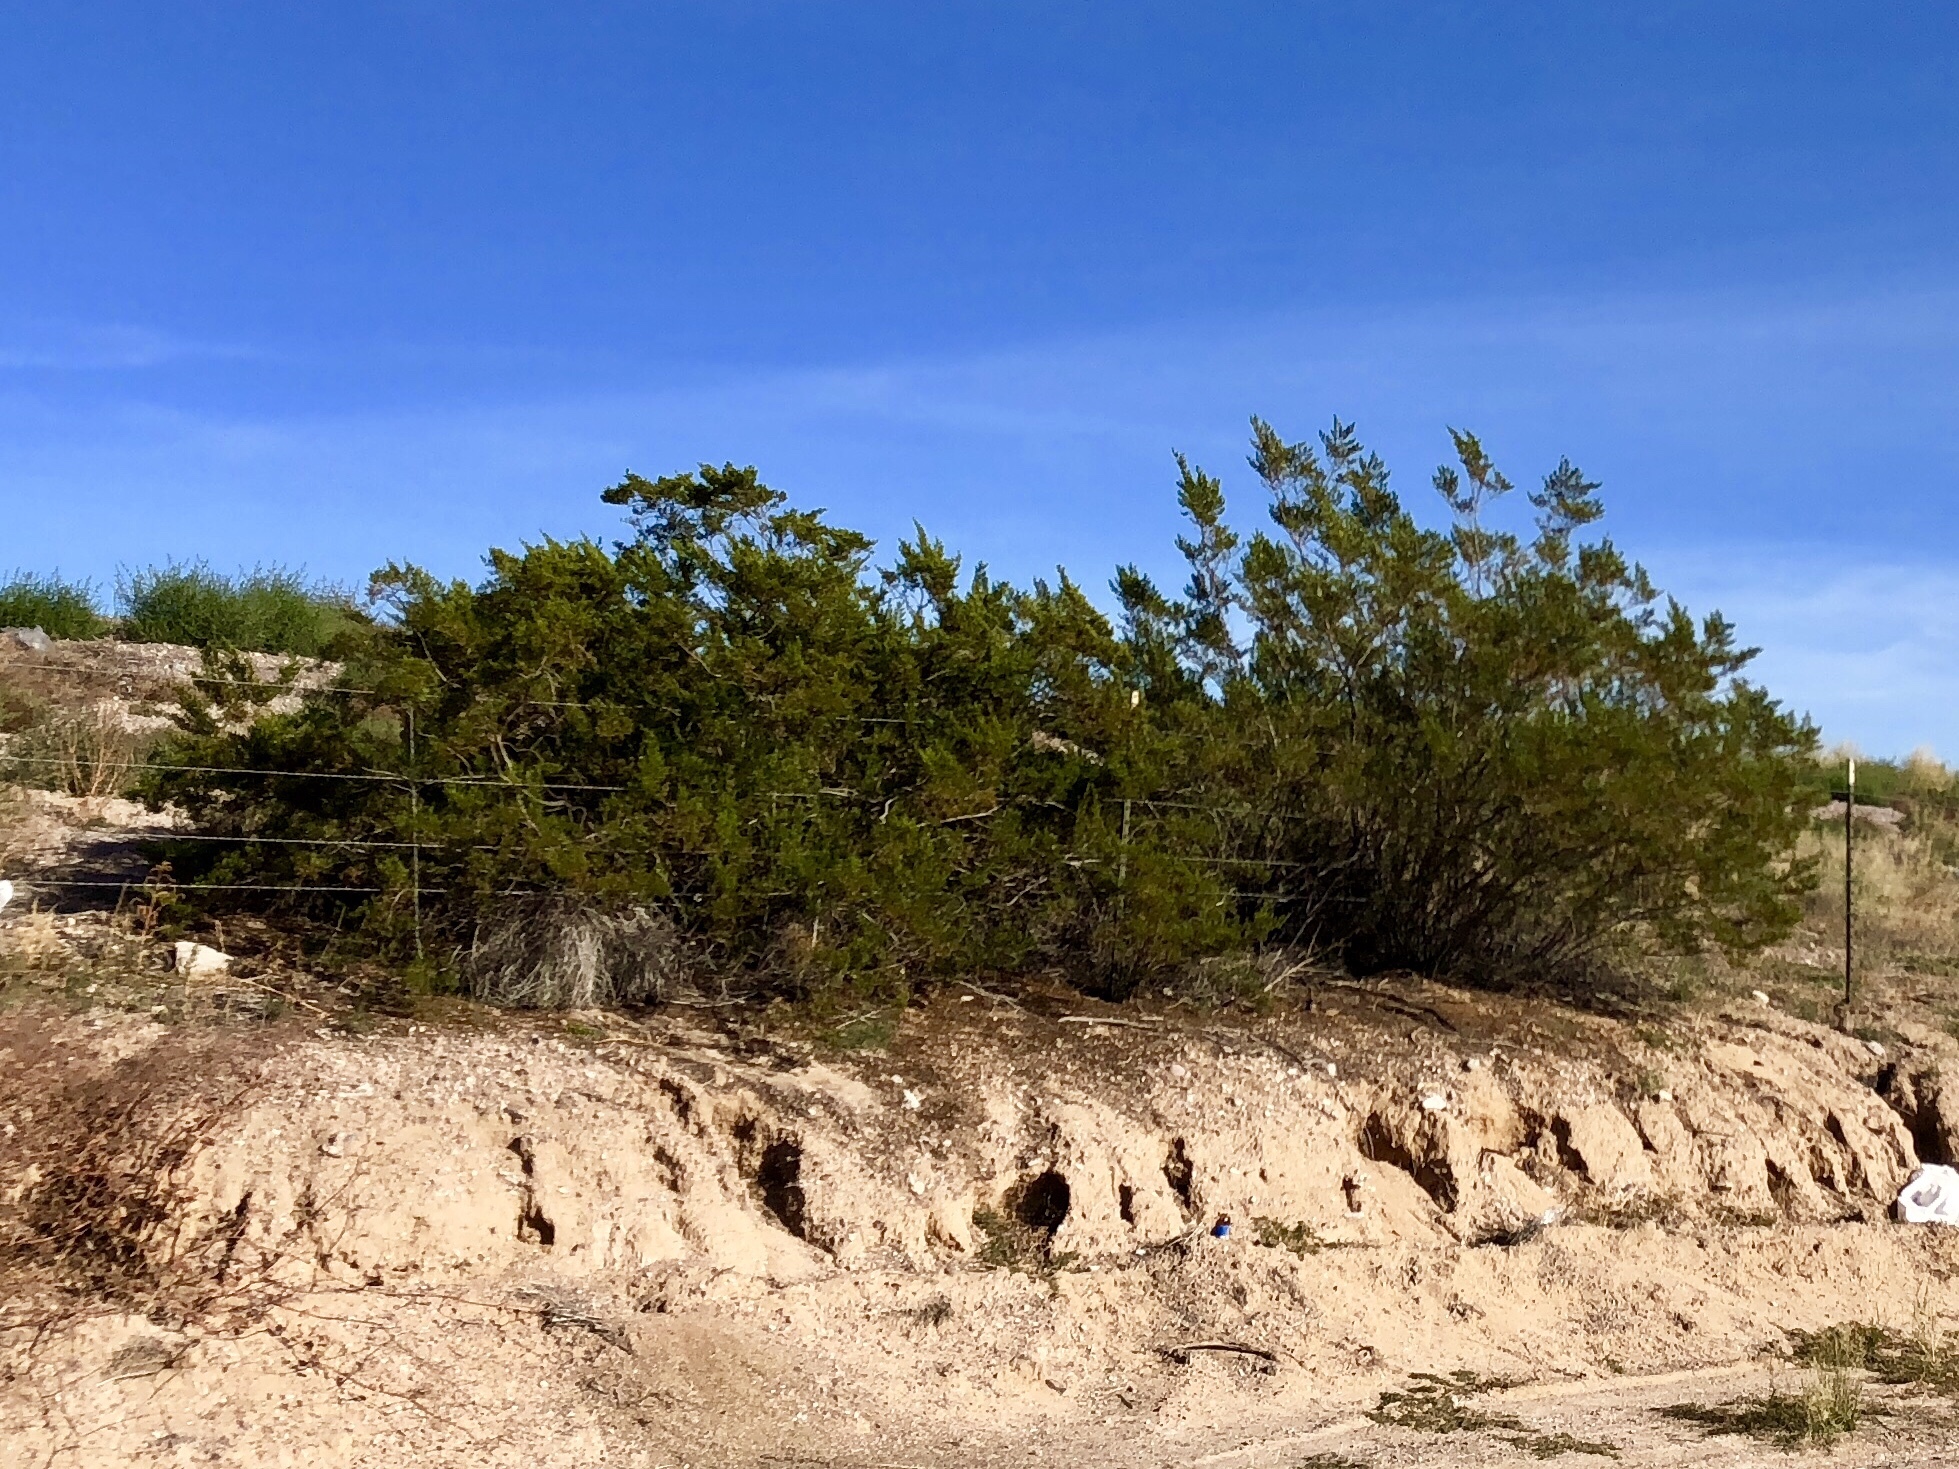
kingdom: Plantae
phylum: Tracheophyta
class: Magnoliopsida
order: Zygophyllales
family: Zygophyllaceae
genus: Larrea
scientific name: Larrea tridentata
